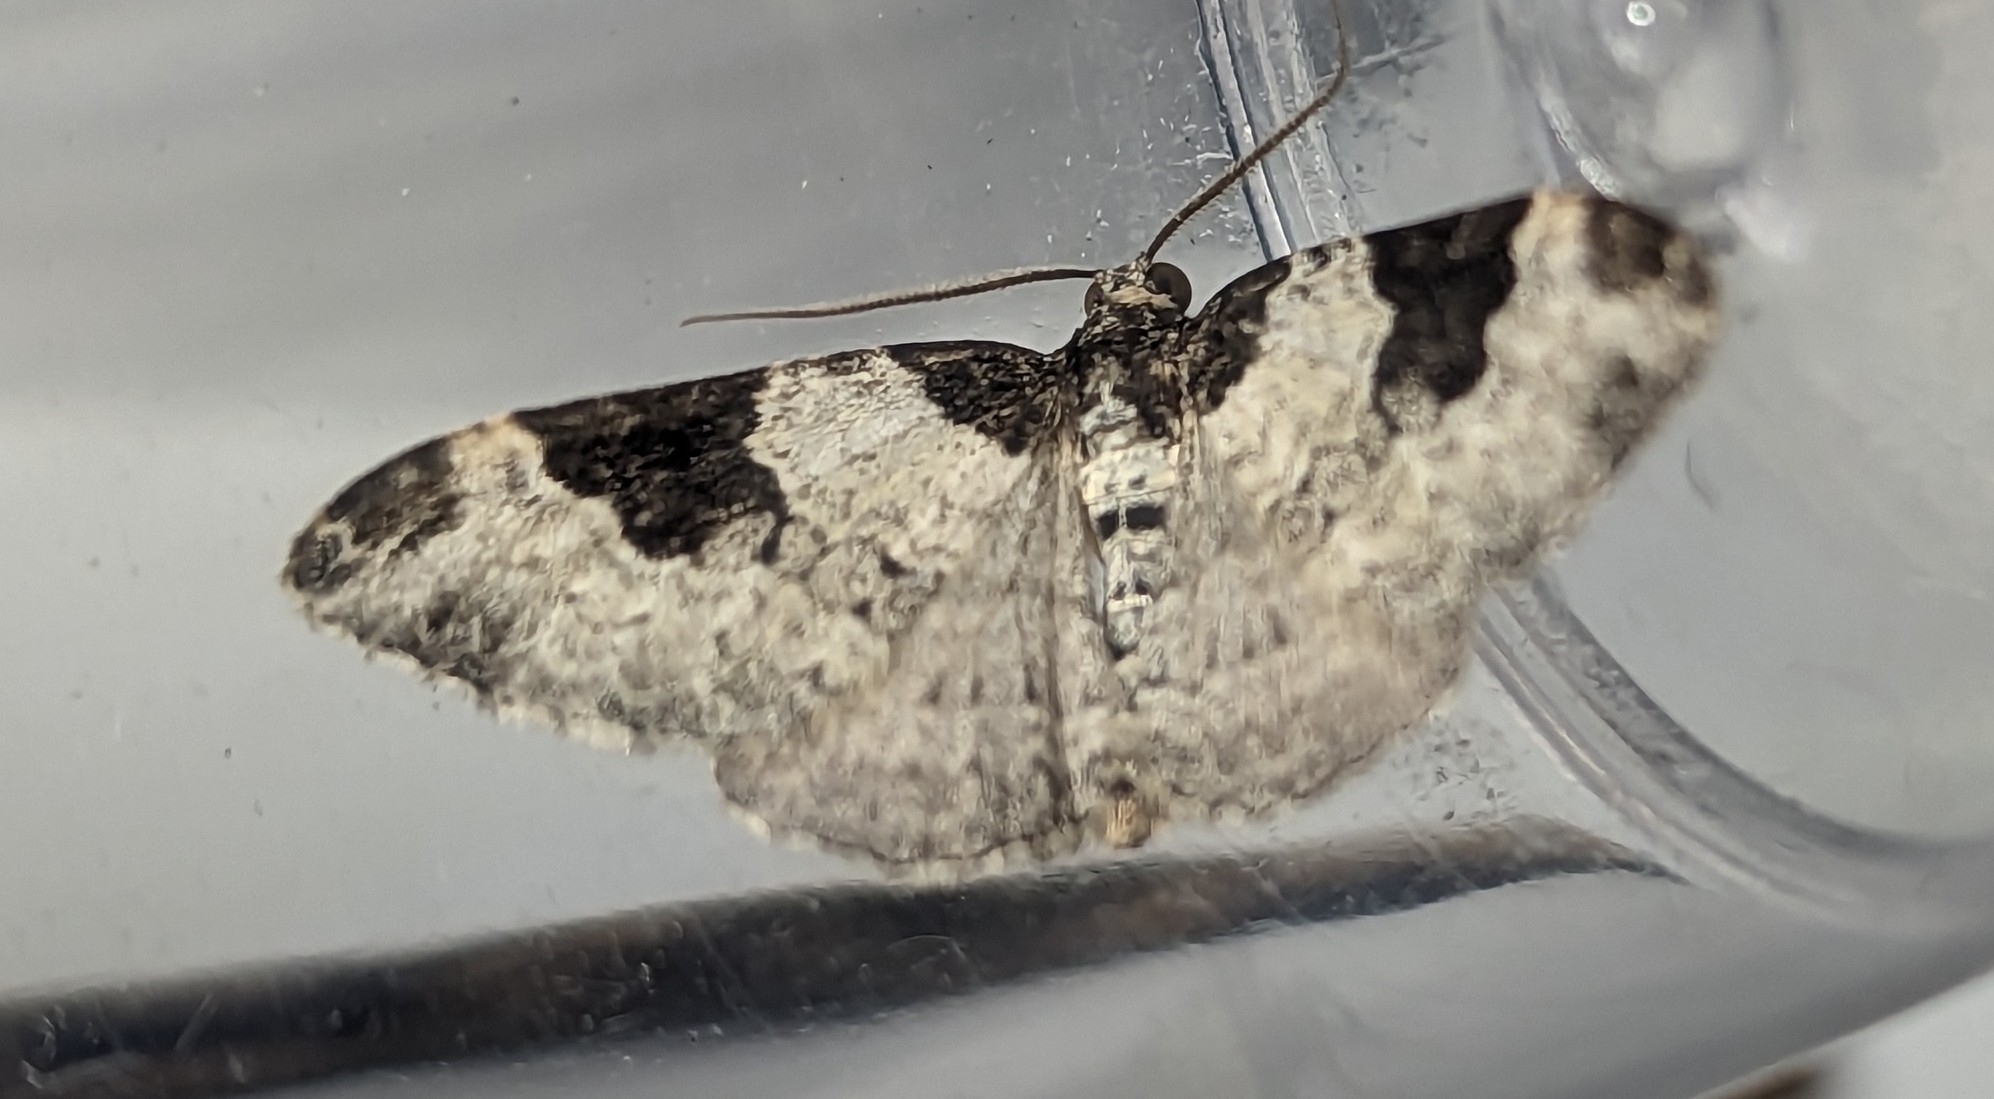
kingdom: Animalia
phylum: Arthropoda
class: Insecta
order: Lepidoptera
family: Geometridae
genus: Xanthorhoe
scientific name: Xanthorhoe fluctuata
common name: Garden carpet
